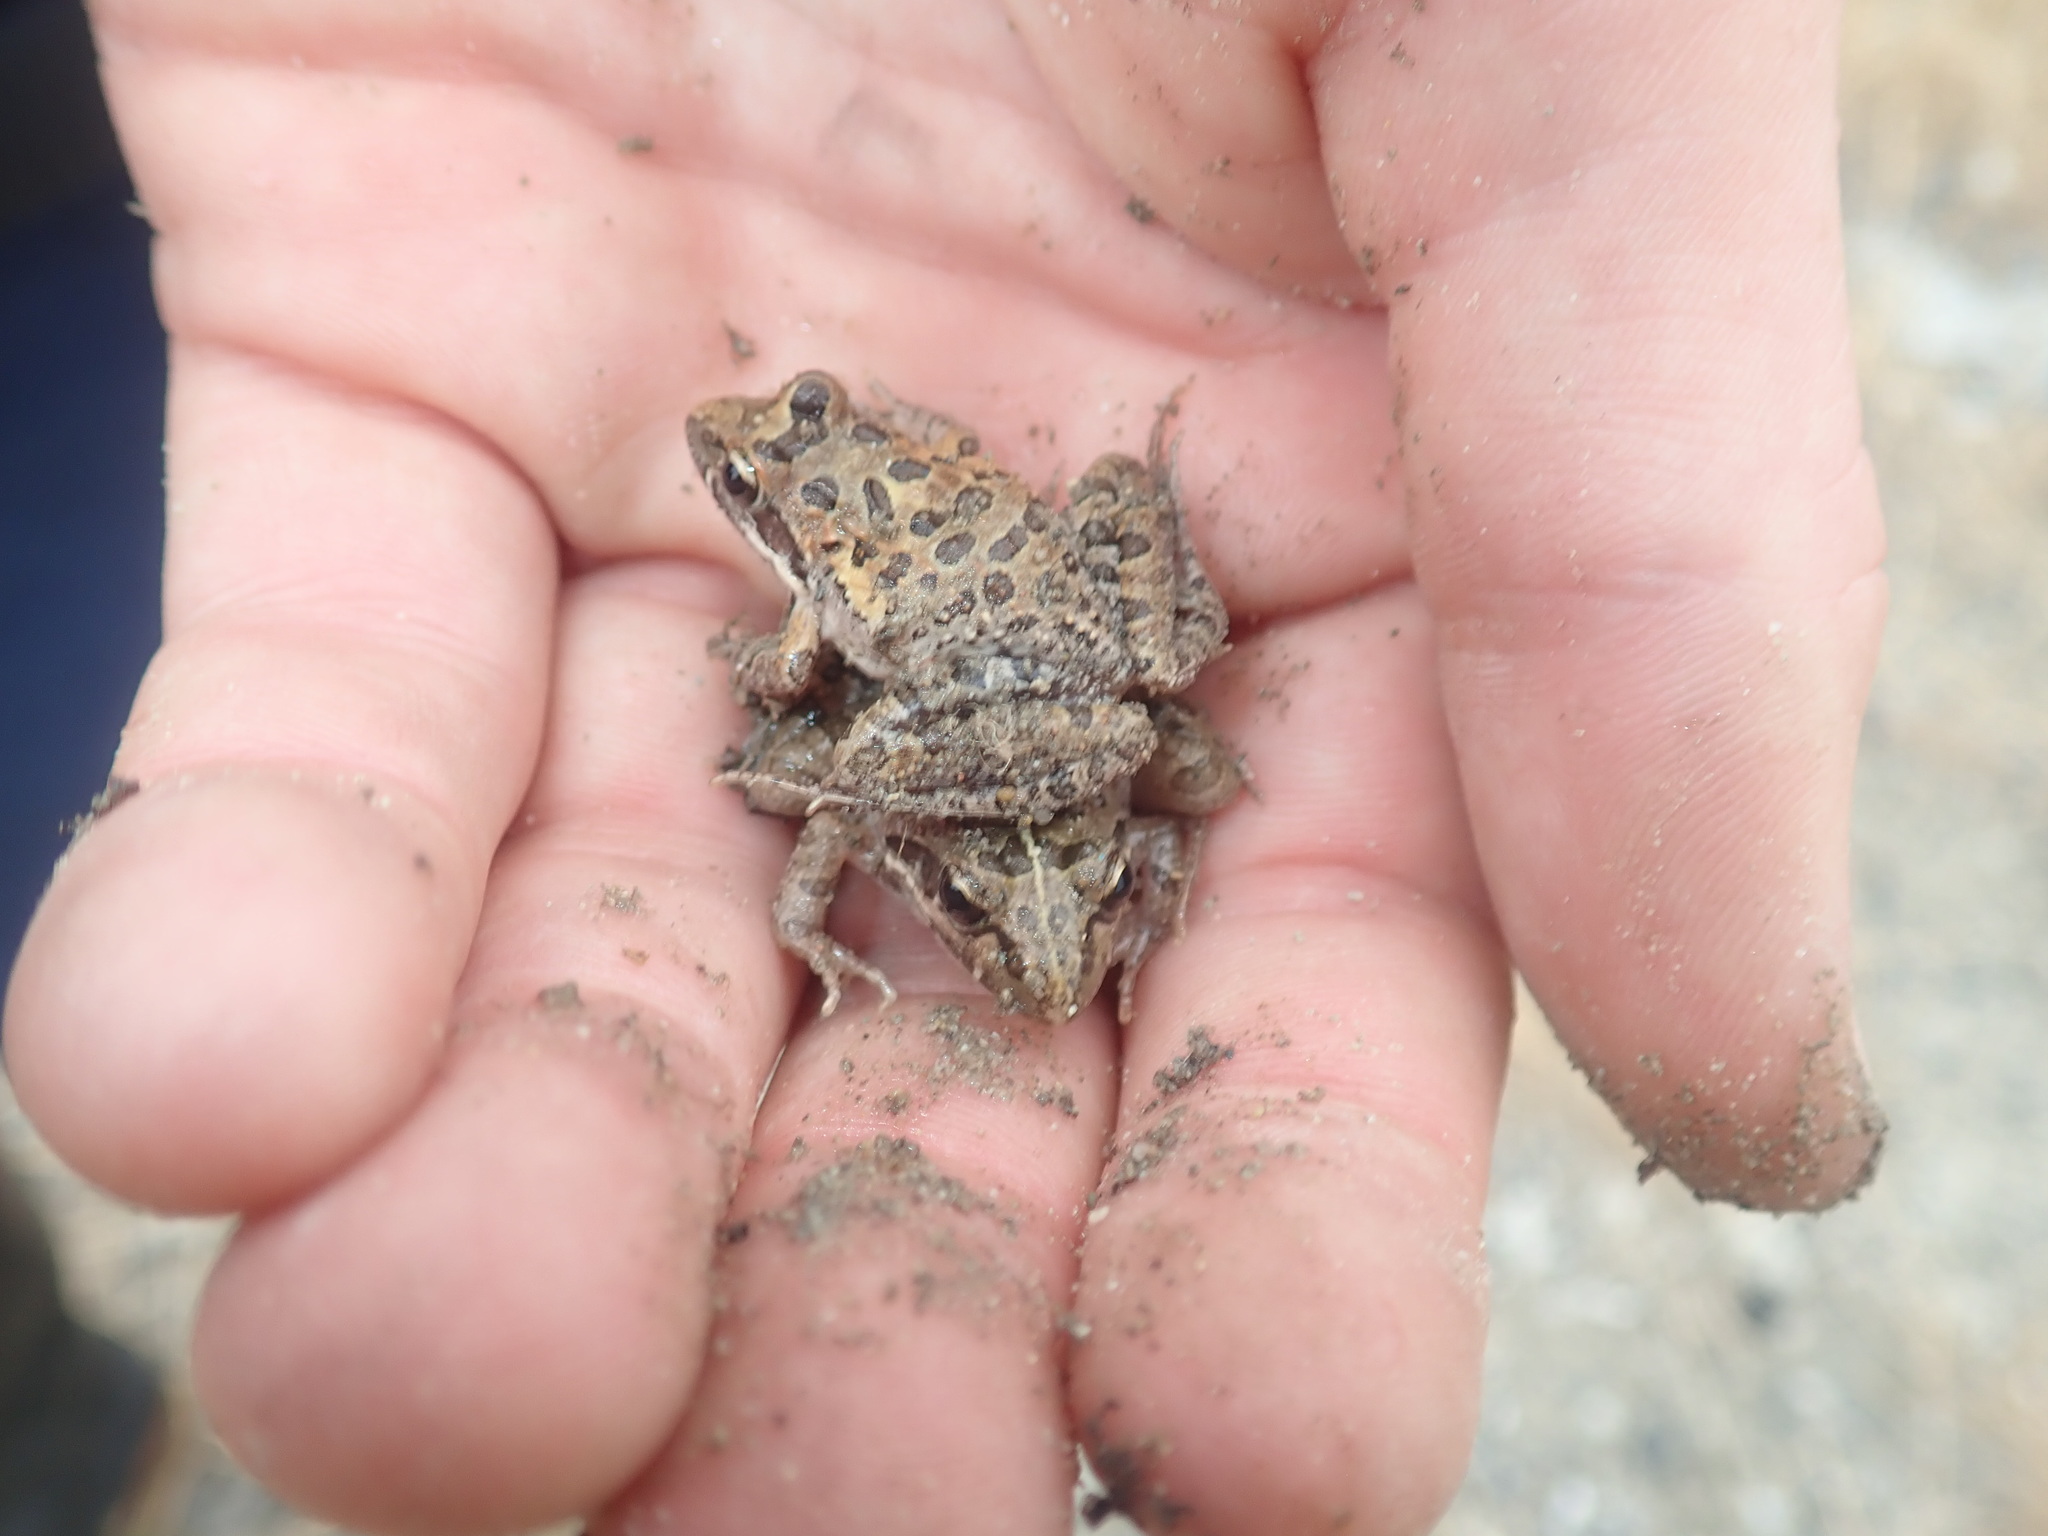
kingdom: Animalia
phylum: Chordata
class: Amphibia
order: Anura
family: Pyxicephalidae
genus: Strongylopus
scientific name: Strongylopus grayii
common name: Gray's stream frog
